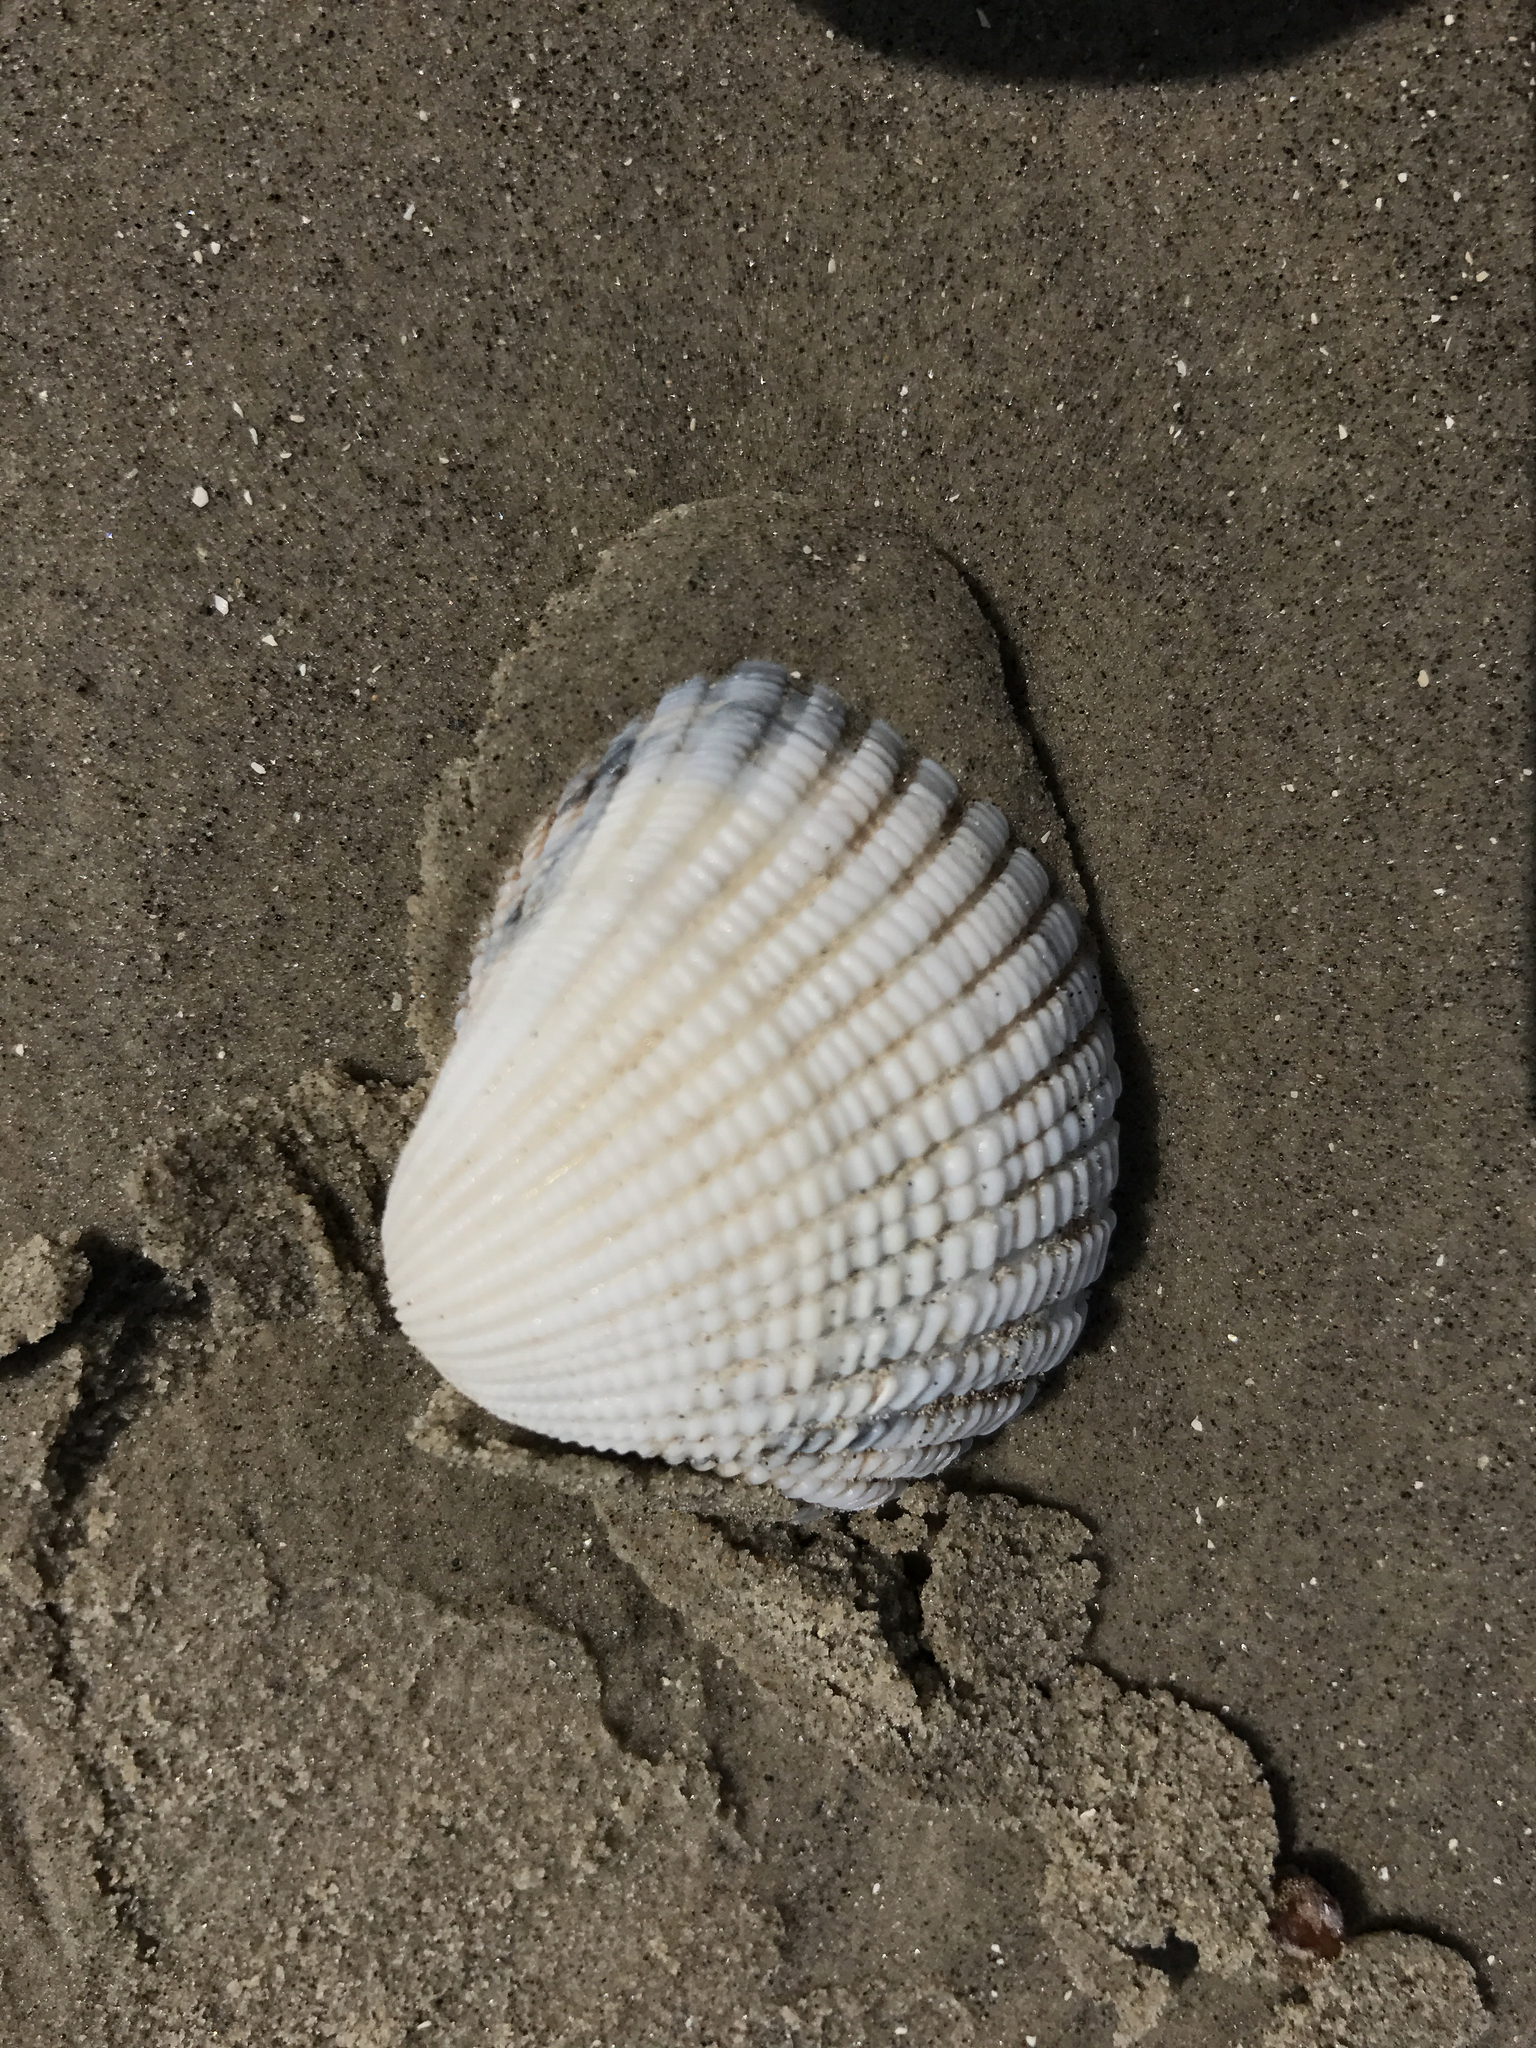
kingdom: Animalia
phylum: Mollusca
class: Bivalvia
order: Arcida
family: Arcidae
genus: Anadara
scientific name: Anadara brasiliana
